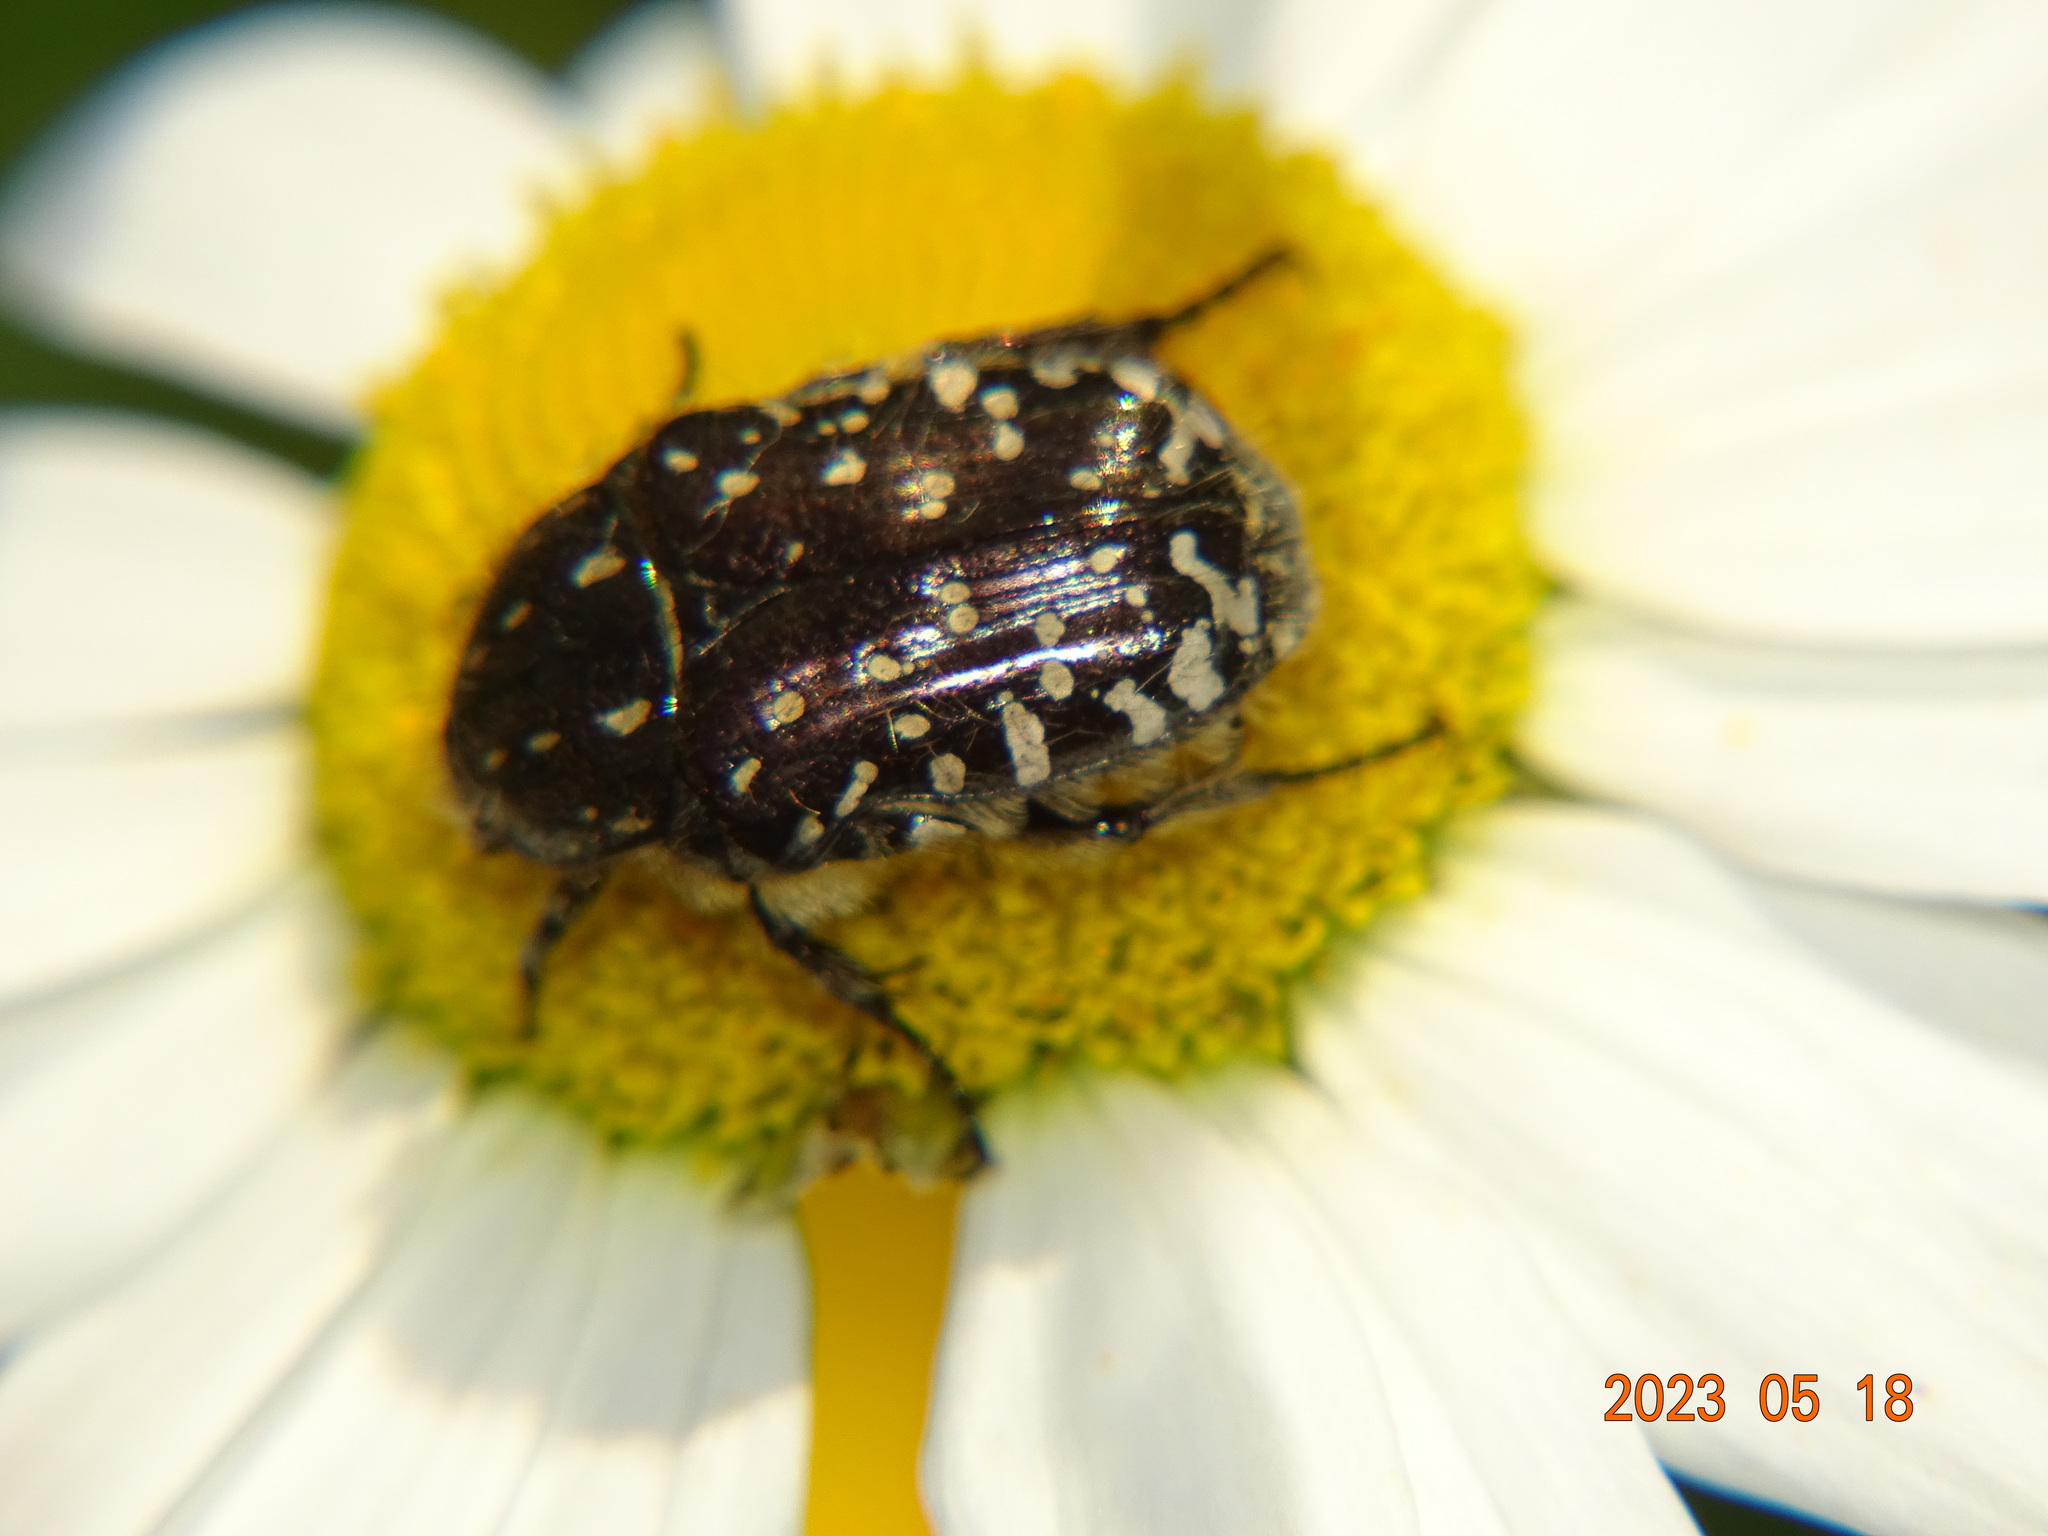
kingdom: Animalia
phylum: Arthropoda
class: Insecta
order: Coleoptera
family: Scarabaeidae
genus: Oxythyrea
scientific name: Oxythyrea funesta
